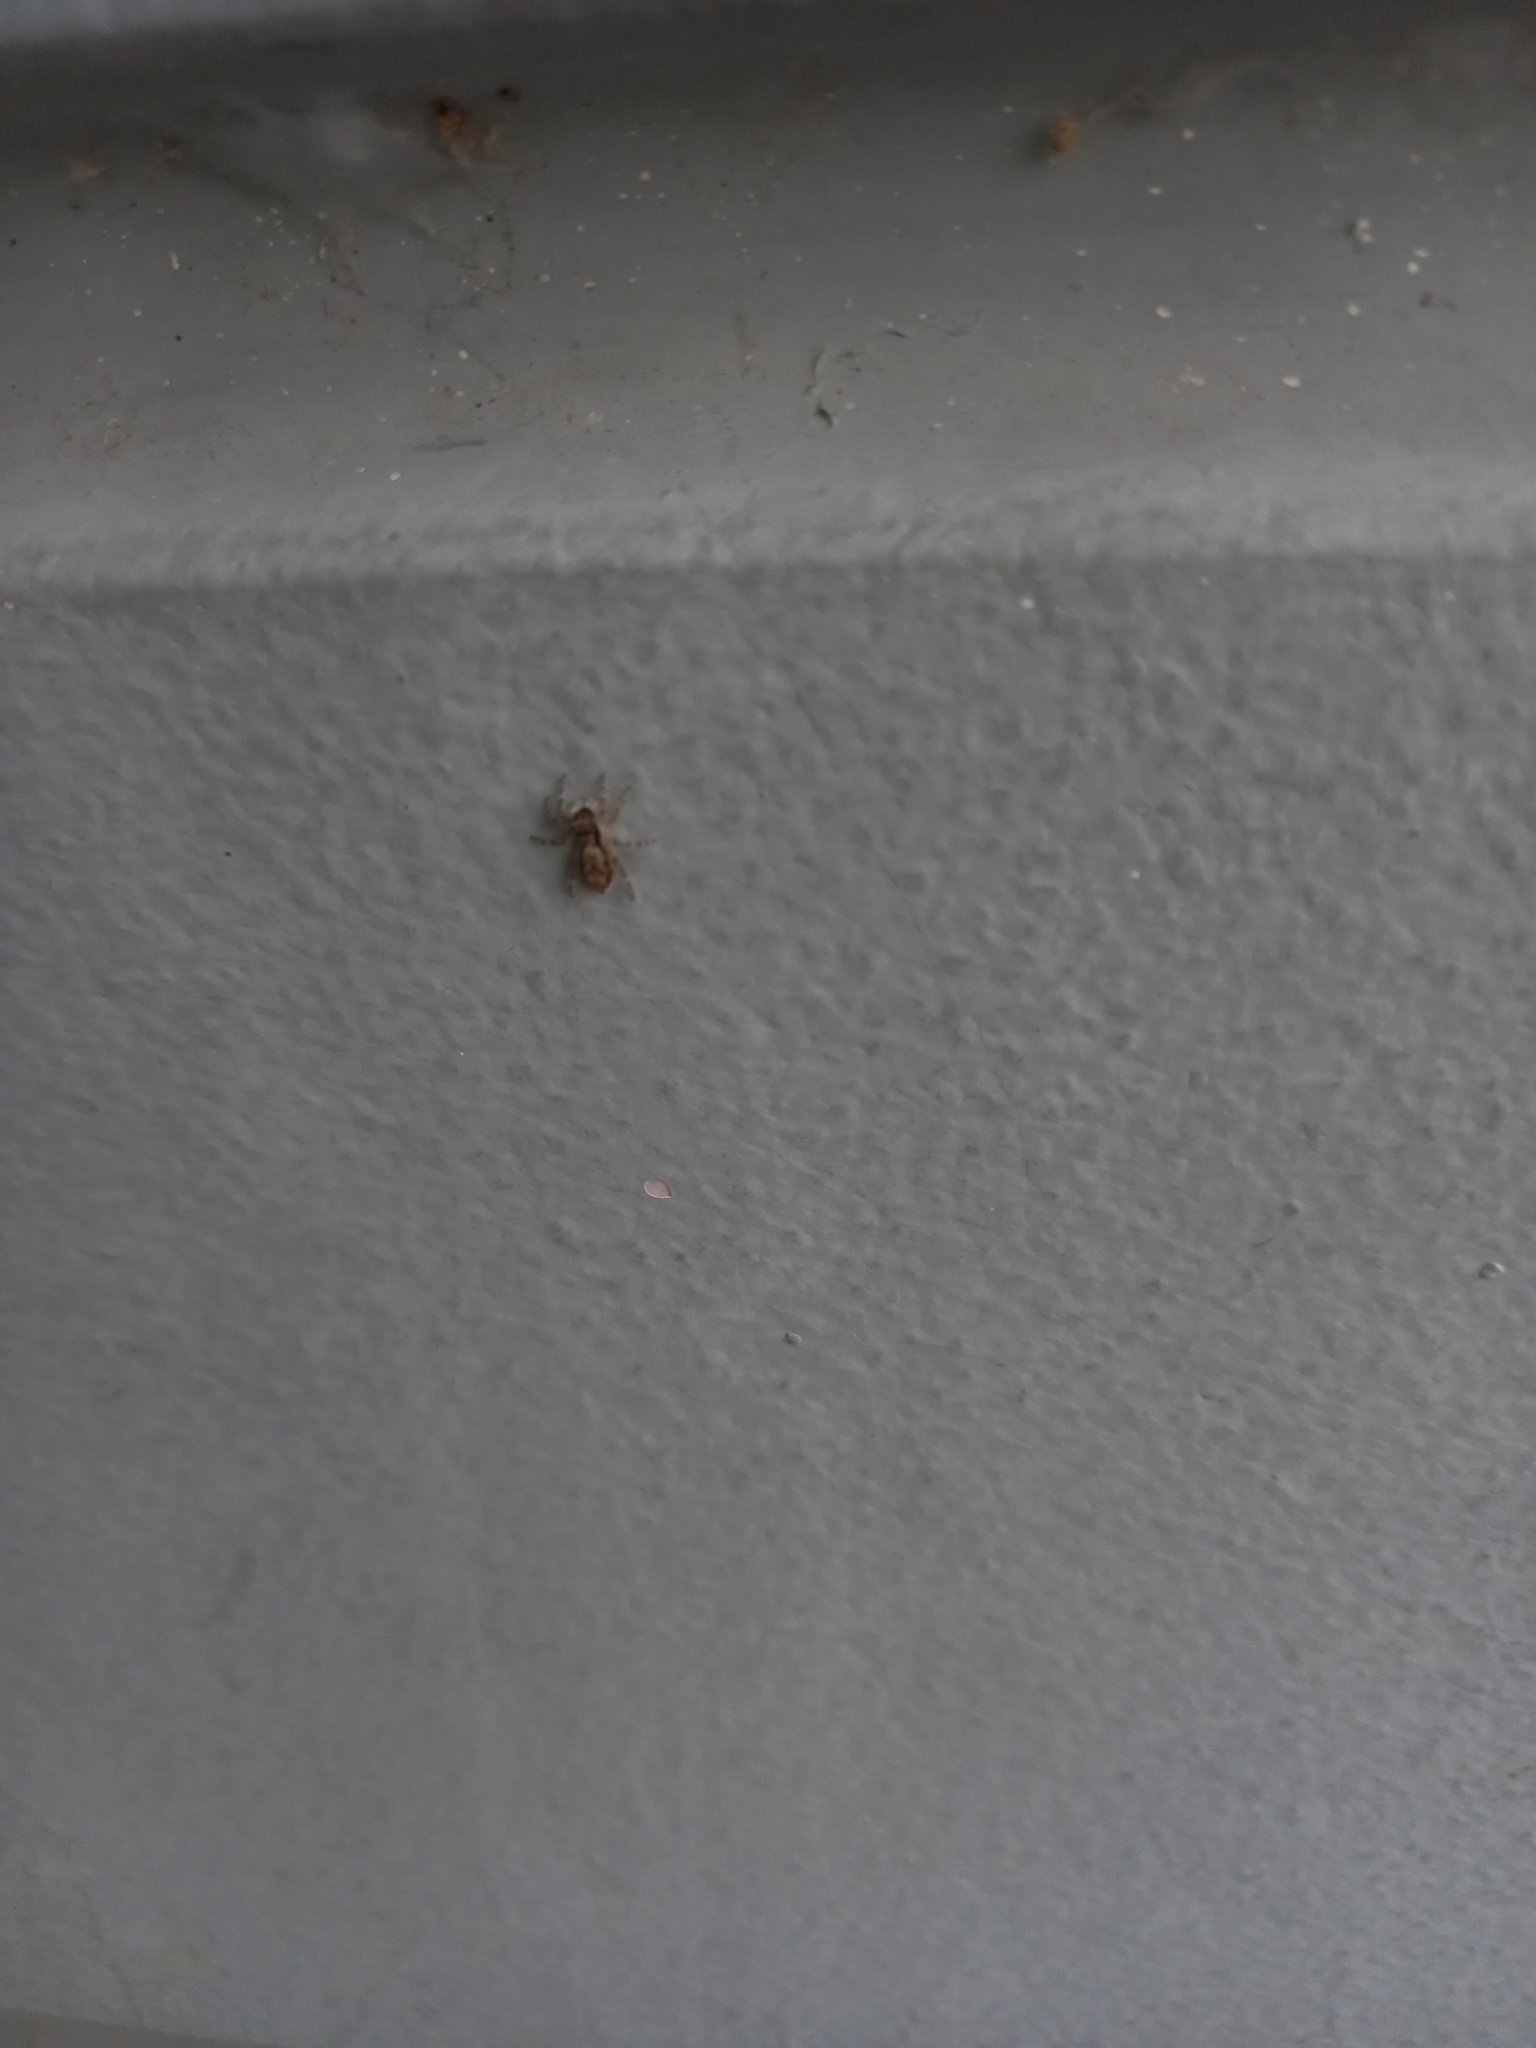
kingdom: Animalia
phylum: Arthropoda
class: Arachnida
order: Araneae
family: Salticidae
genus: Menemerus
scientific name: Menemerus bivittatus
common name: Gray wall jumper
